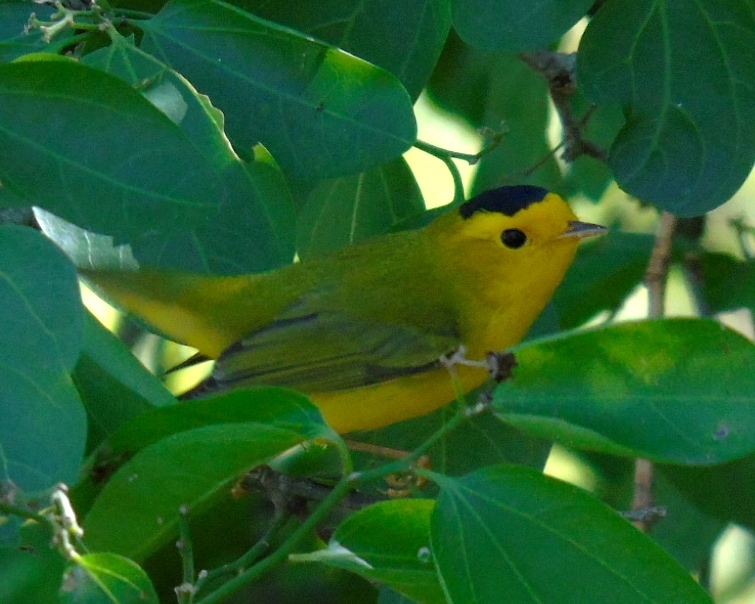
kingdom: Animalia
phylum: Chordata
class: Aves
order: Passeriformes
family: Parulidae
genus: Cardellina
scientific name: Cardellina pusilla
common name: Wilson's warbler
